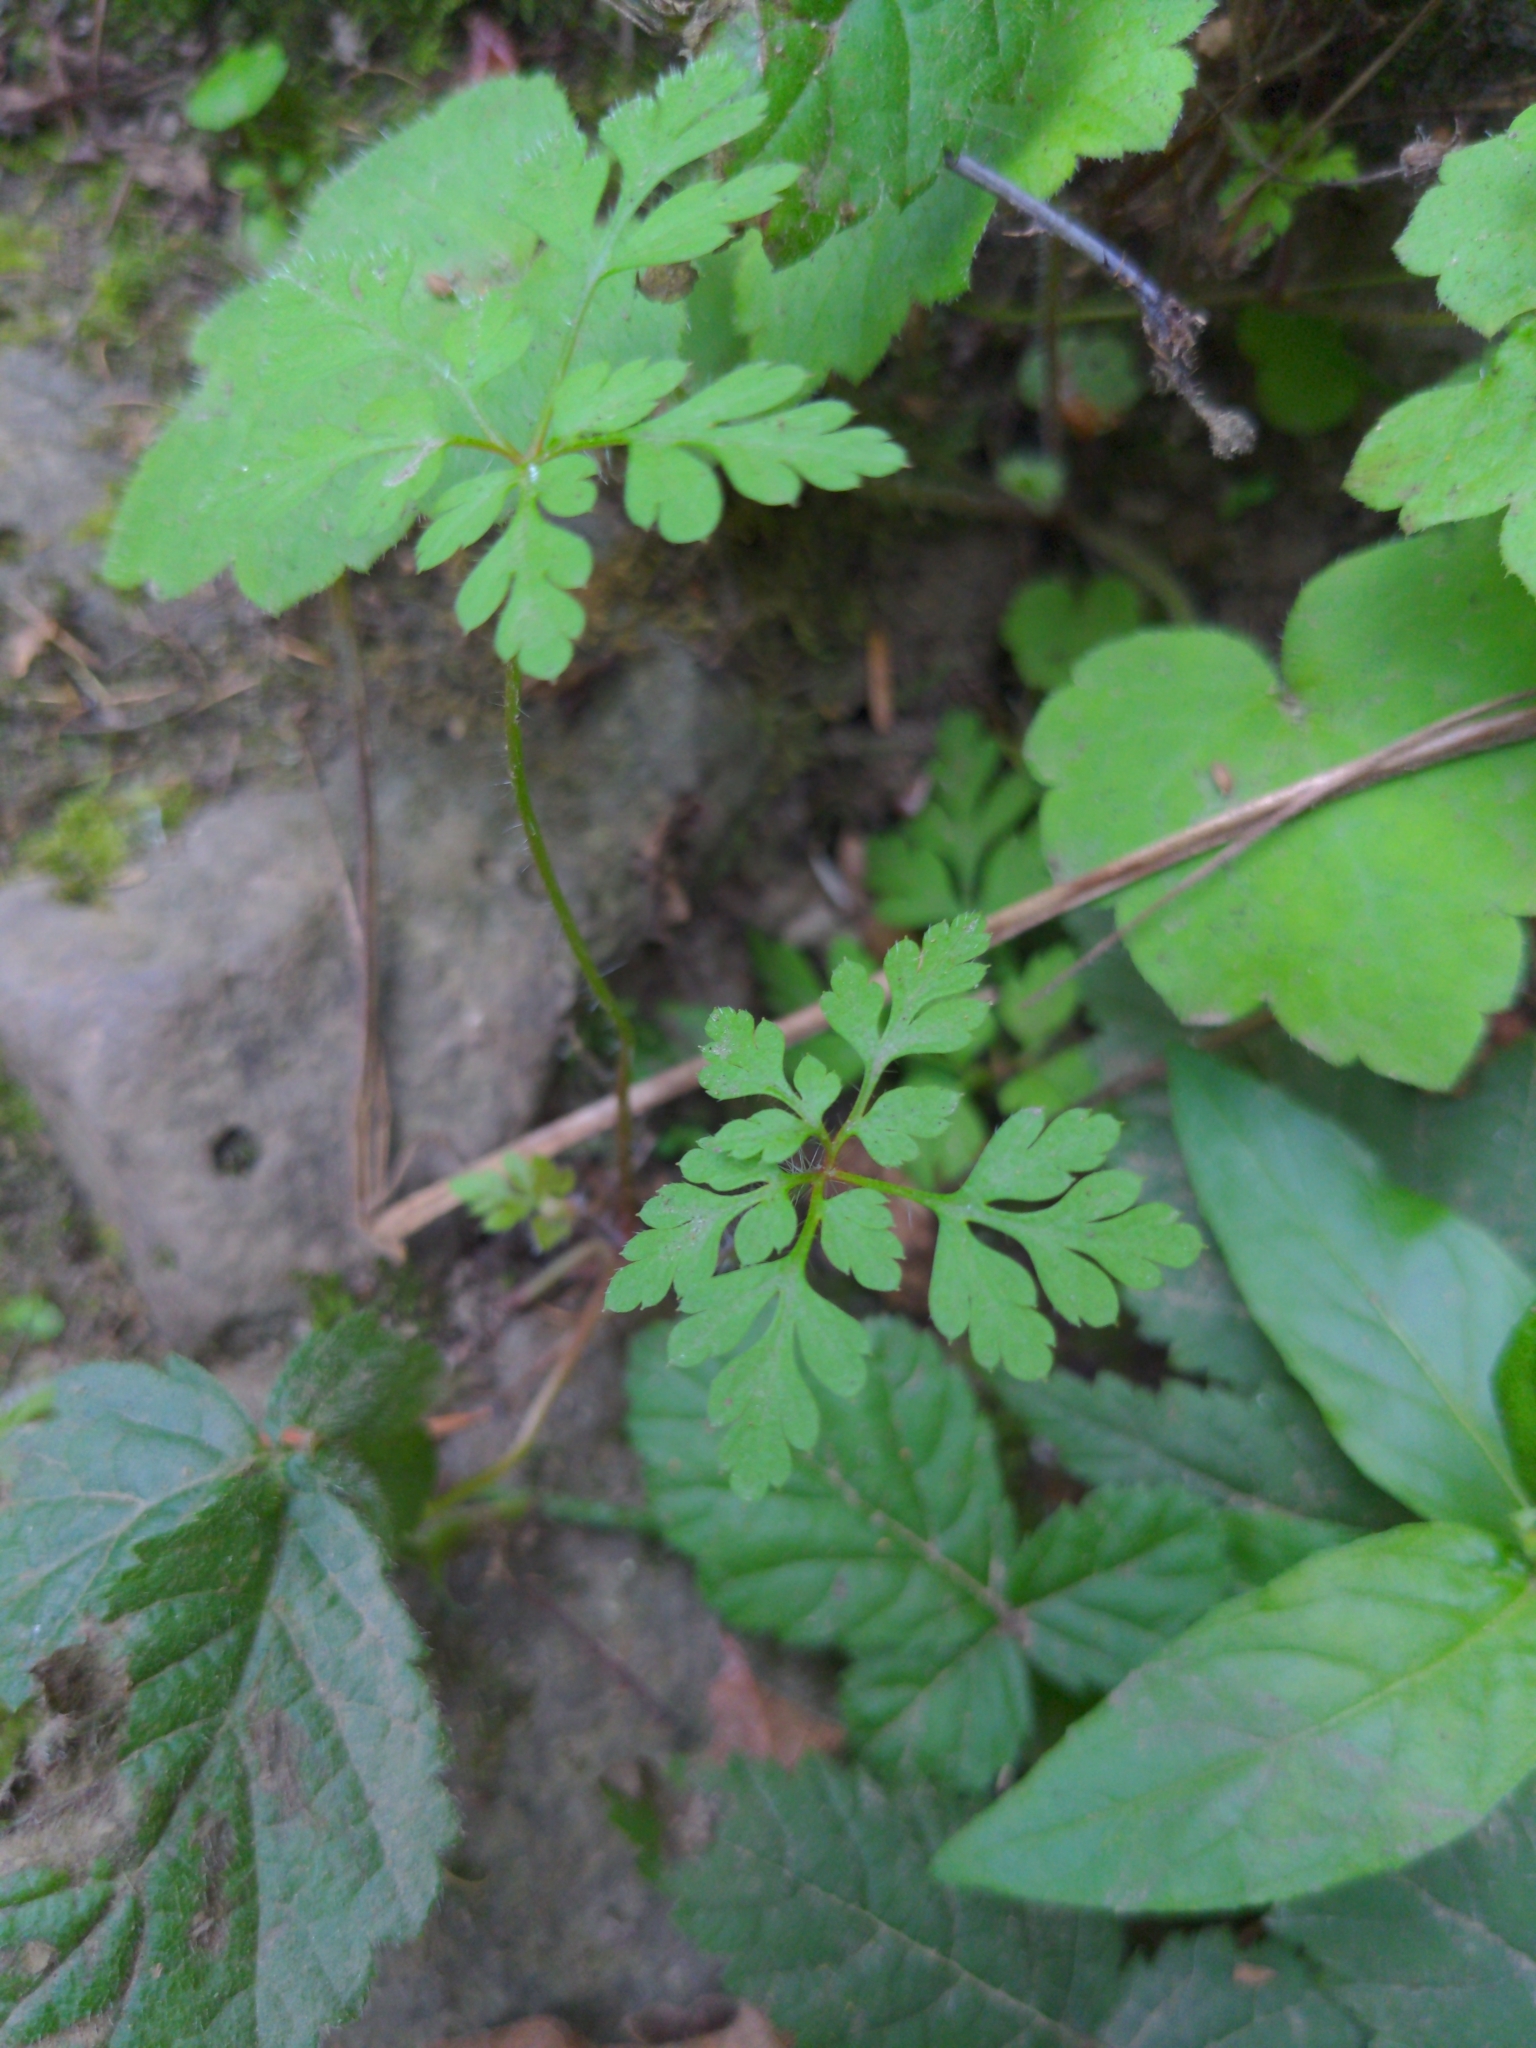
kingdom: Plantae
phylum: Tracheophyta
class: Magnoliopsida
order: Geraniales
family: Geraniaceae
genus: Geranium
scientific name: Geranium
